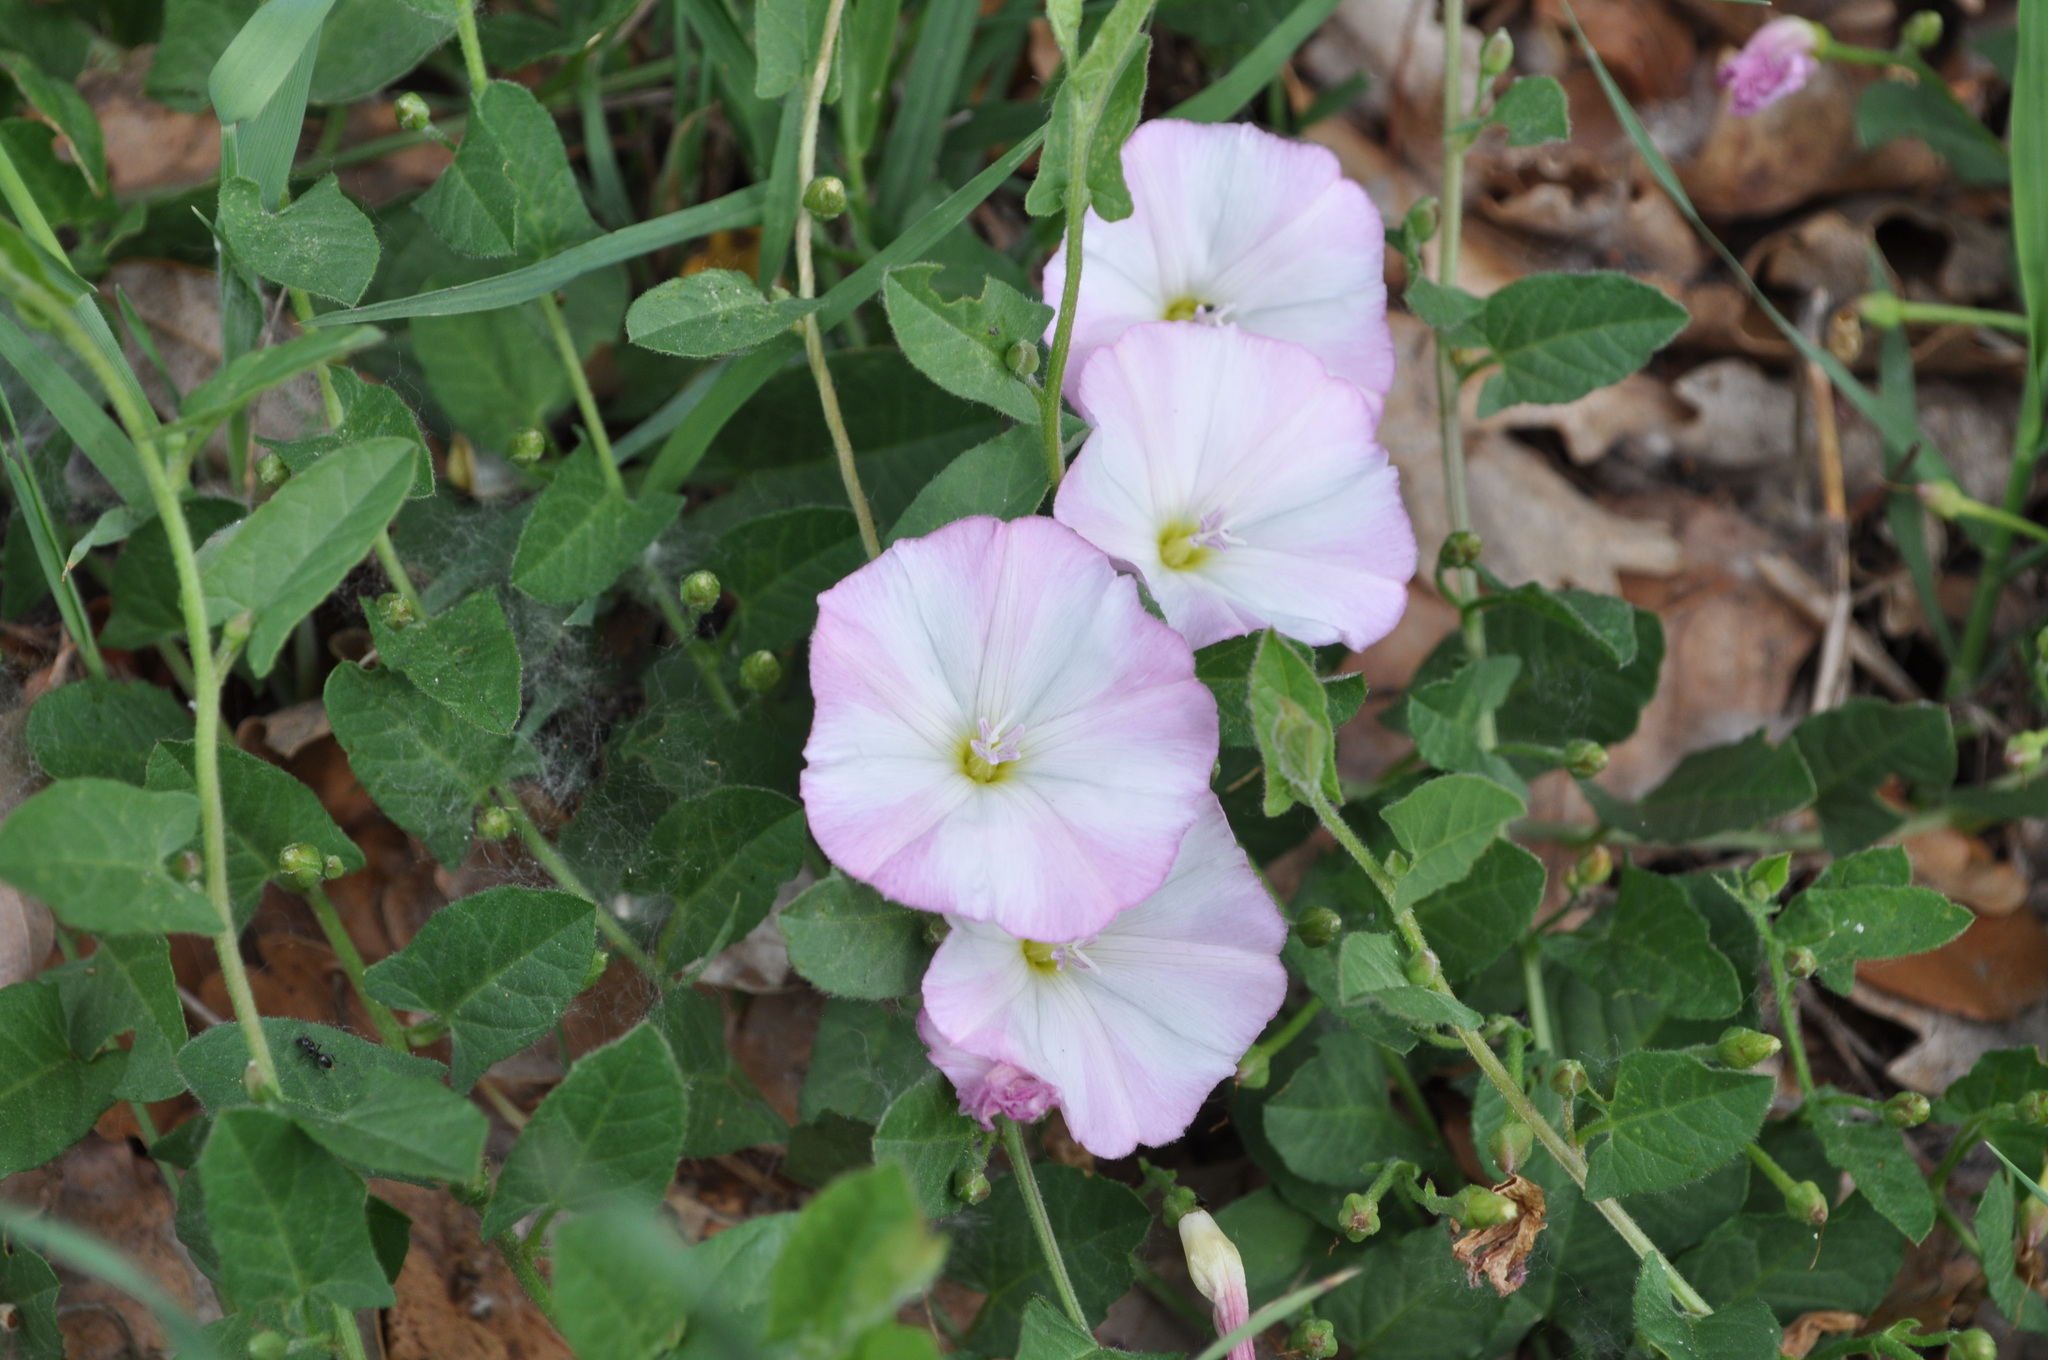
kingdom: Plantae
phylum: Tracheophyta
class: Magnoliopsida
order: Solanales
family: Convolvulaceae
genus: Convolvulus
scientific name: Convolvulus arvensis
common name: Field bindweed
